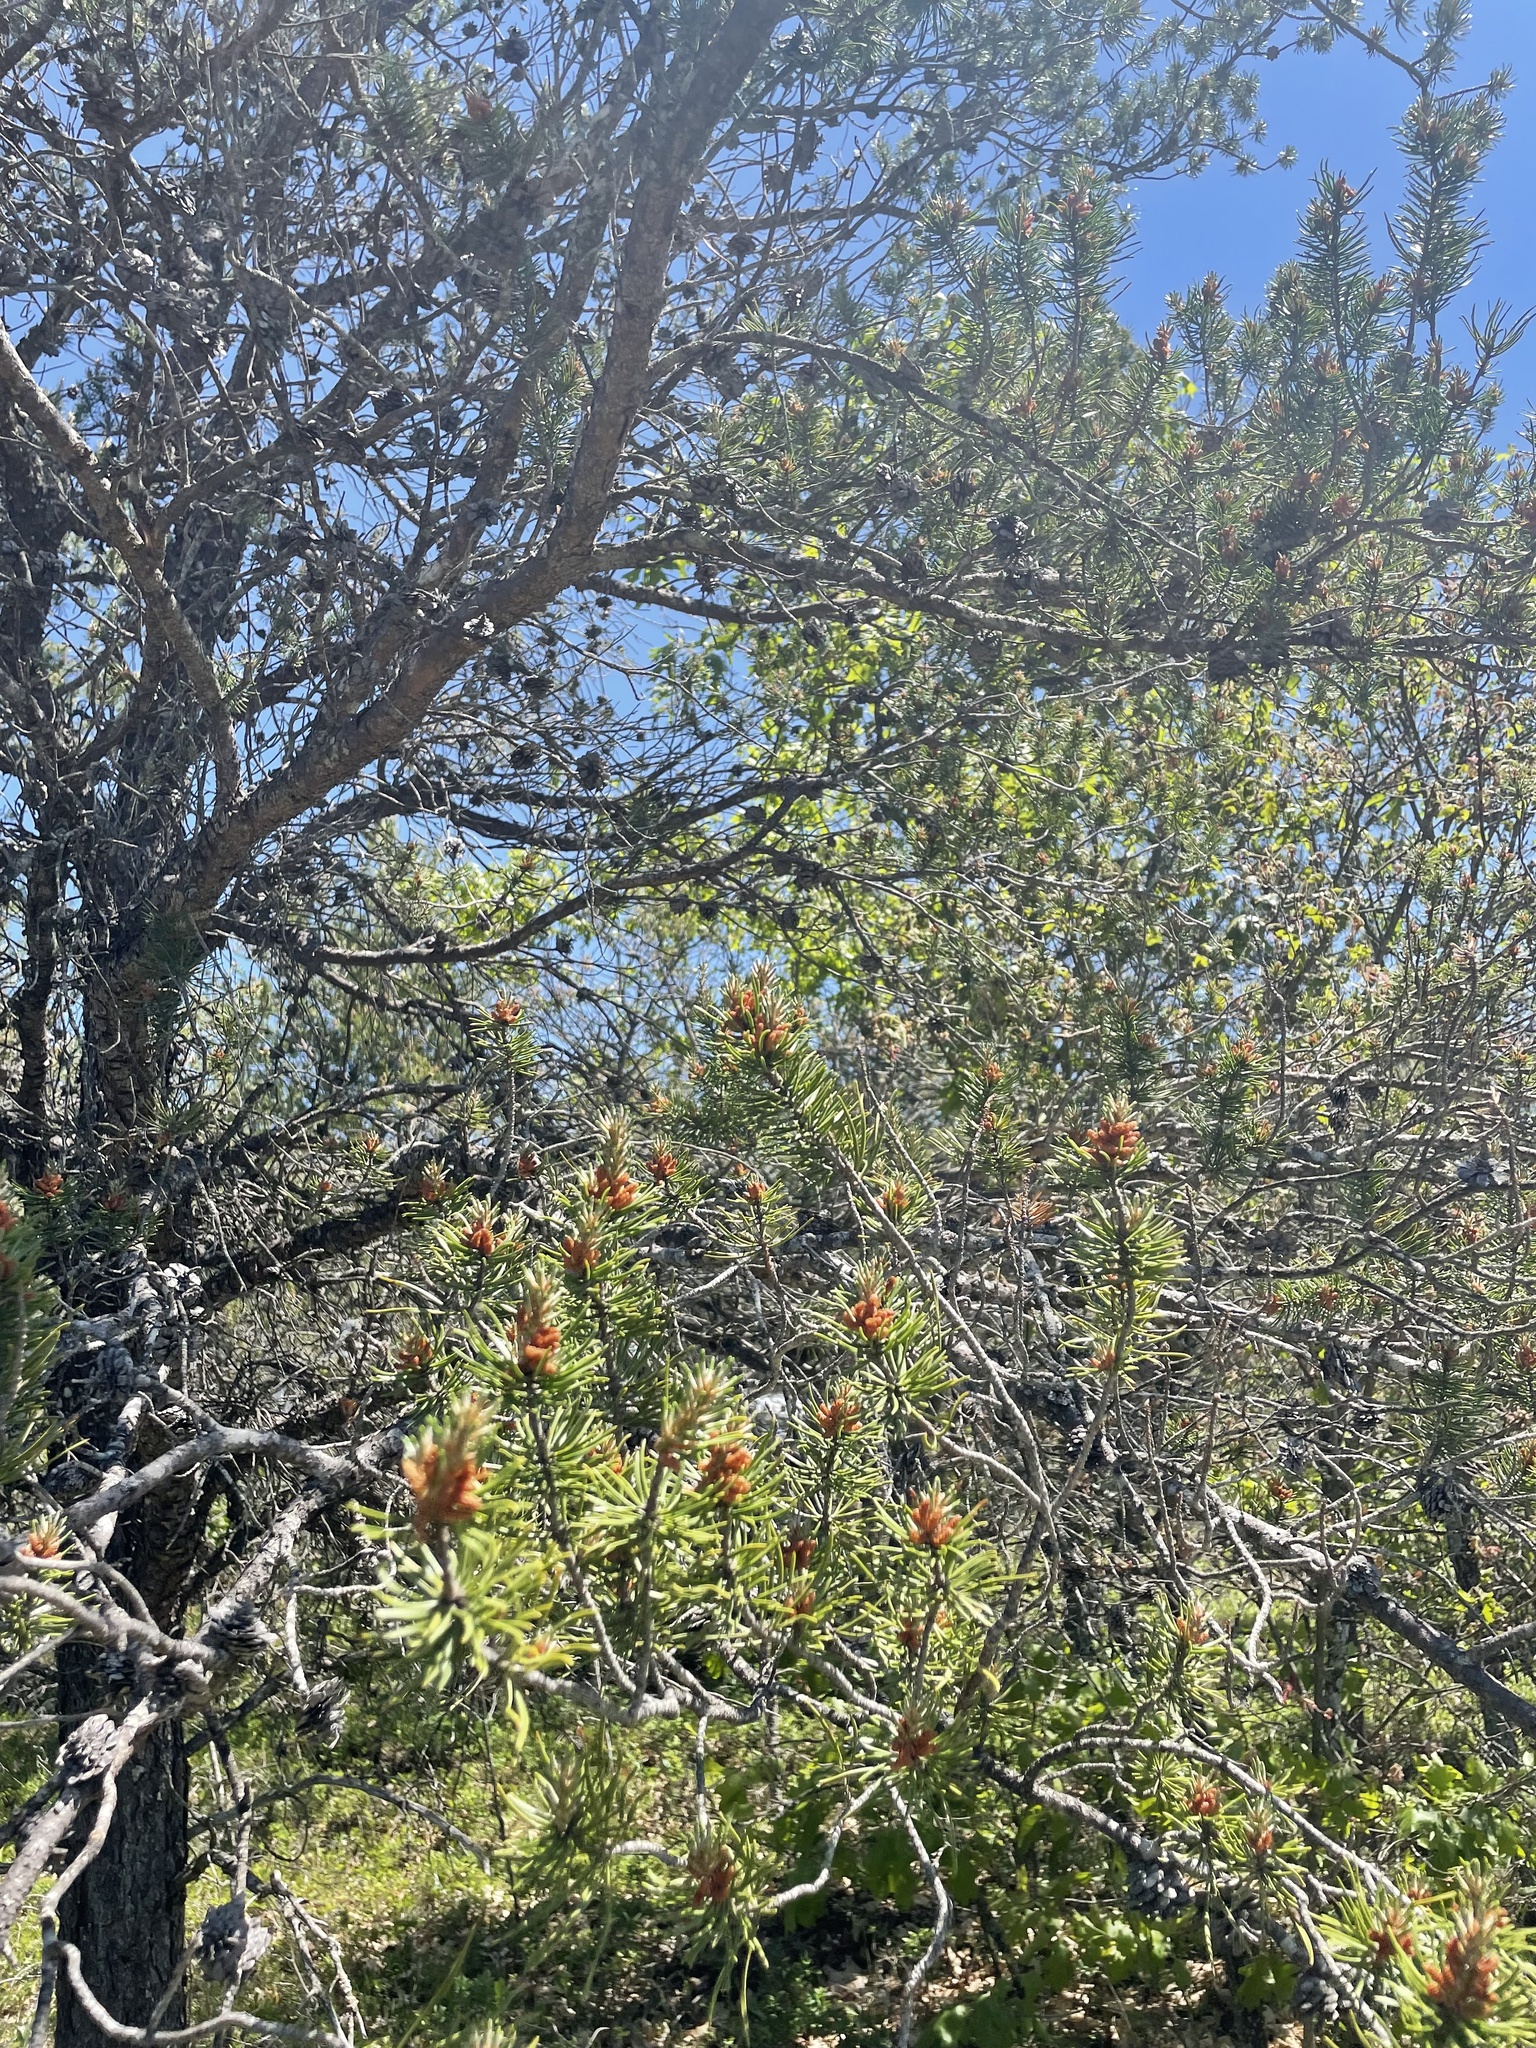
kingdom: Plantae
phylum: Tracheophyta
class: Pinopsida
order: Pinales
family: Pinaceae
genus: Pinus
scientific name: Pinus banksiana
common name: Jack pine
